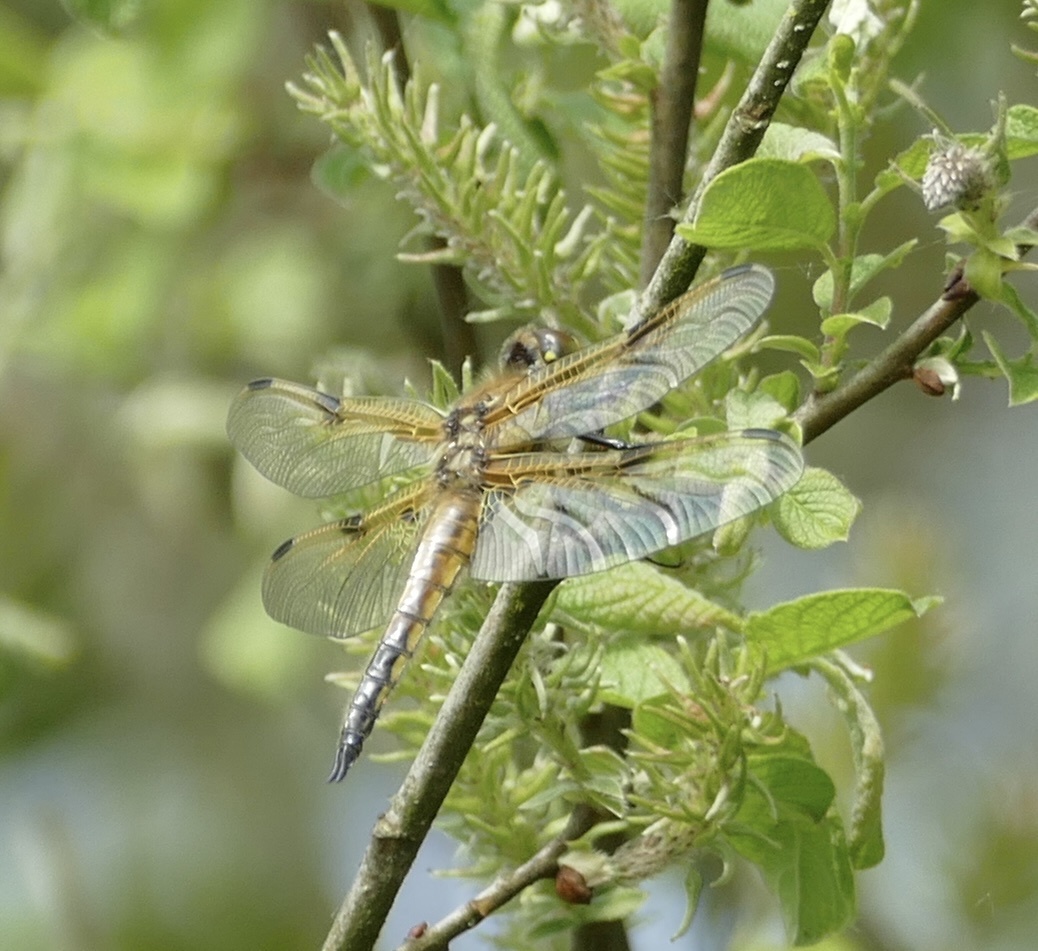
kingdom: Animalia
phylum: Arthropoda
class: Insecta
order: Odonata
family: Libellulidae
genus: Libellula
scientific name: Libellula quadrimaculata
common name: Four-spotted chaser
